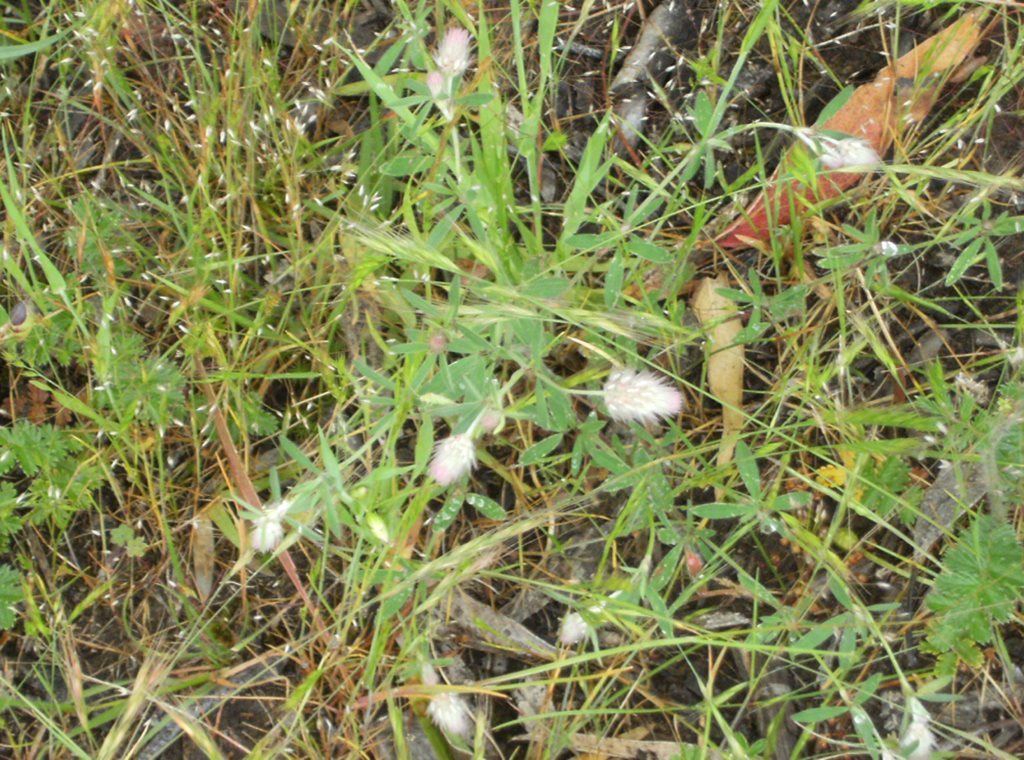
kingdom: Plantae
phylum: Tracheophyta
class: Magnoliopsida
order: Fabales
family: Fabaceae
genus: Trifolium
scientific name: Trifolium arvense
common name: Hare's-foot clover
